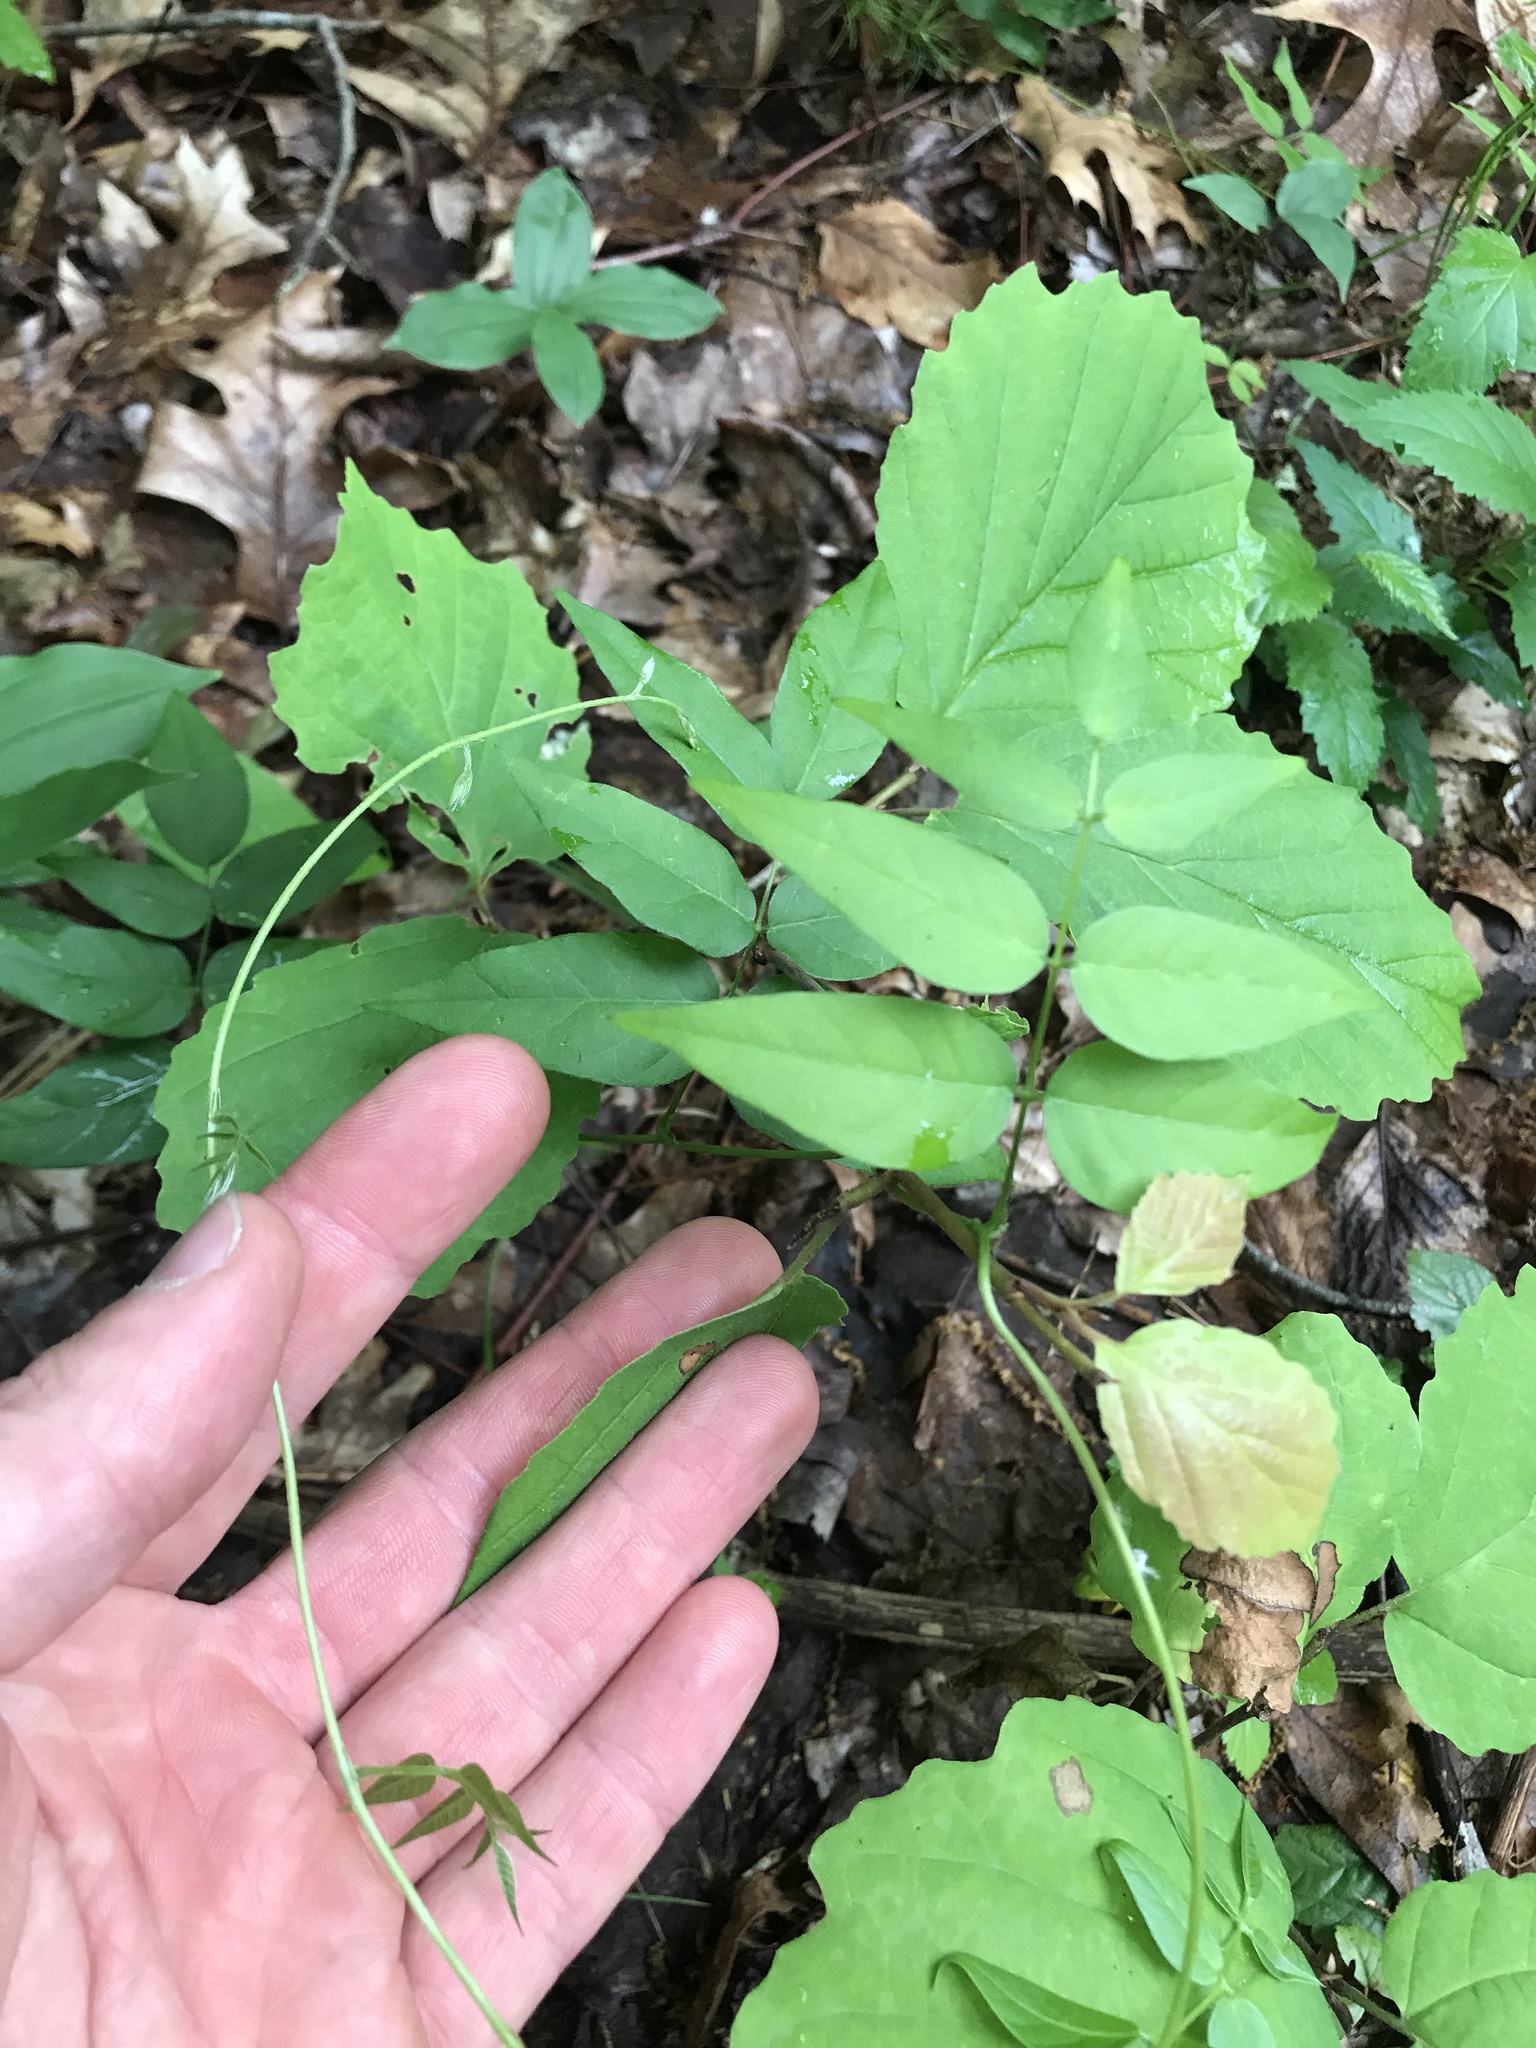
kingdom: Plantae
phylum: Tracheophyta
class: Magnoliopsida
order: Fabales
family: Fabaceae
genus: Apios
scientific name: Apios americana
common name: American potato-bean
